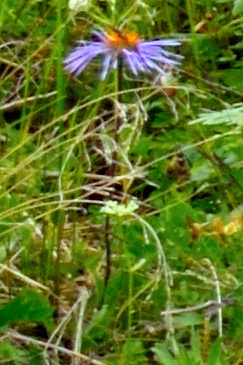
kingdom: Plantae
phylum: Tracheophyta
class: Magnoliopsida
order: Asterales
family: Asteraceae
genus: Tibetiodes
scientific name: Tibetiodes flaccida
